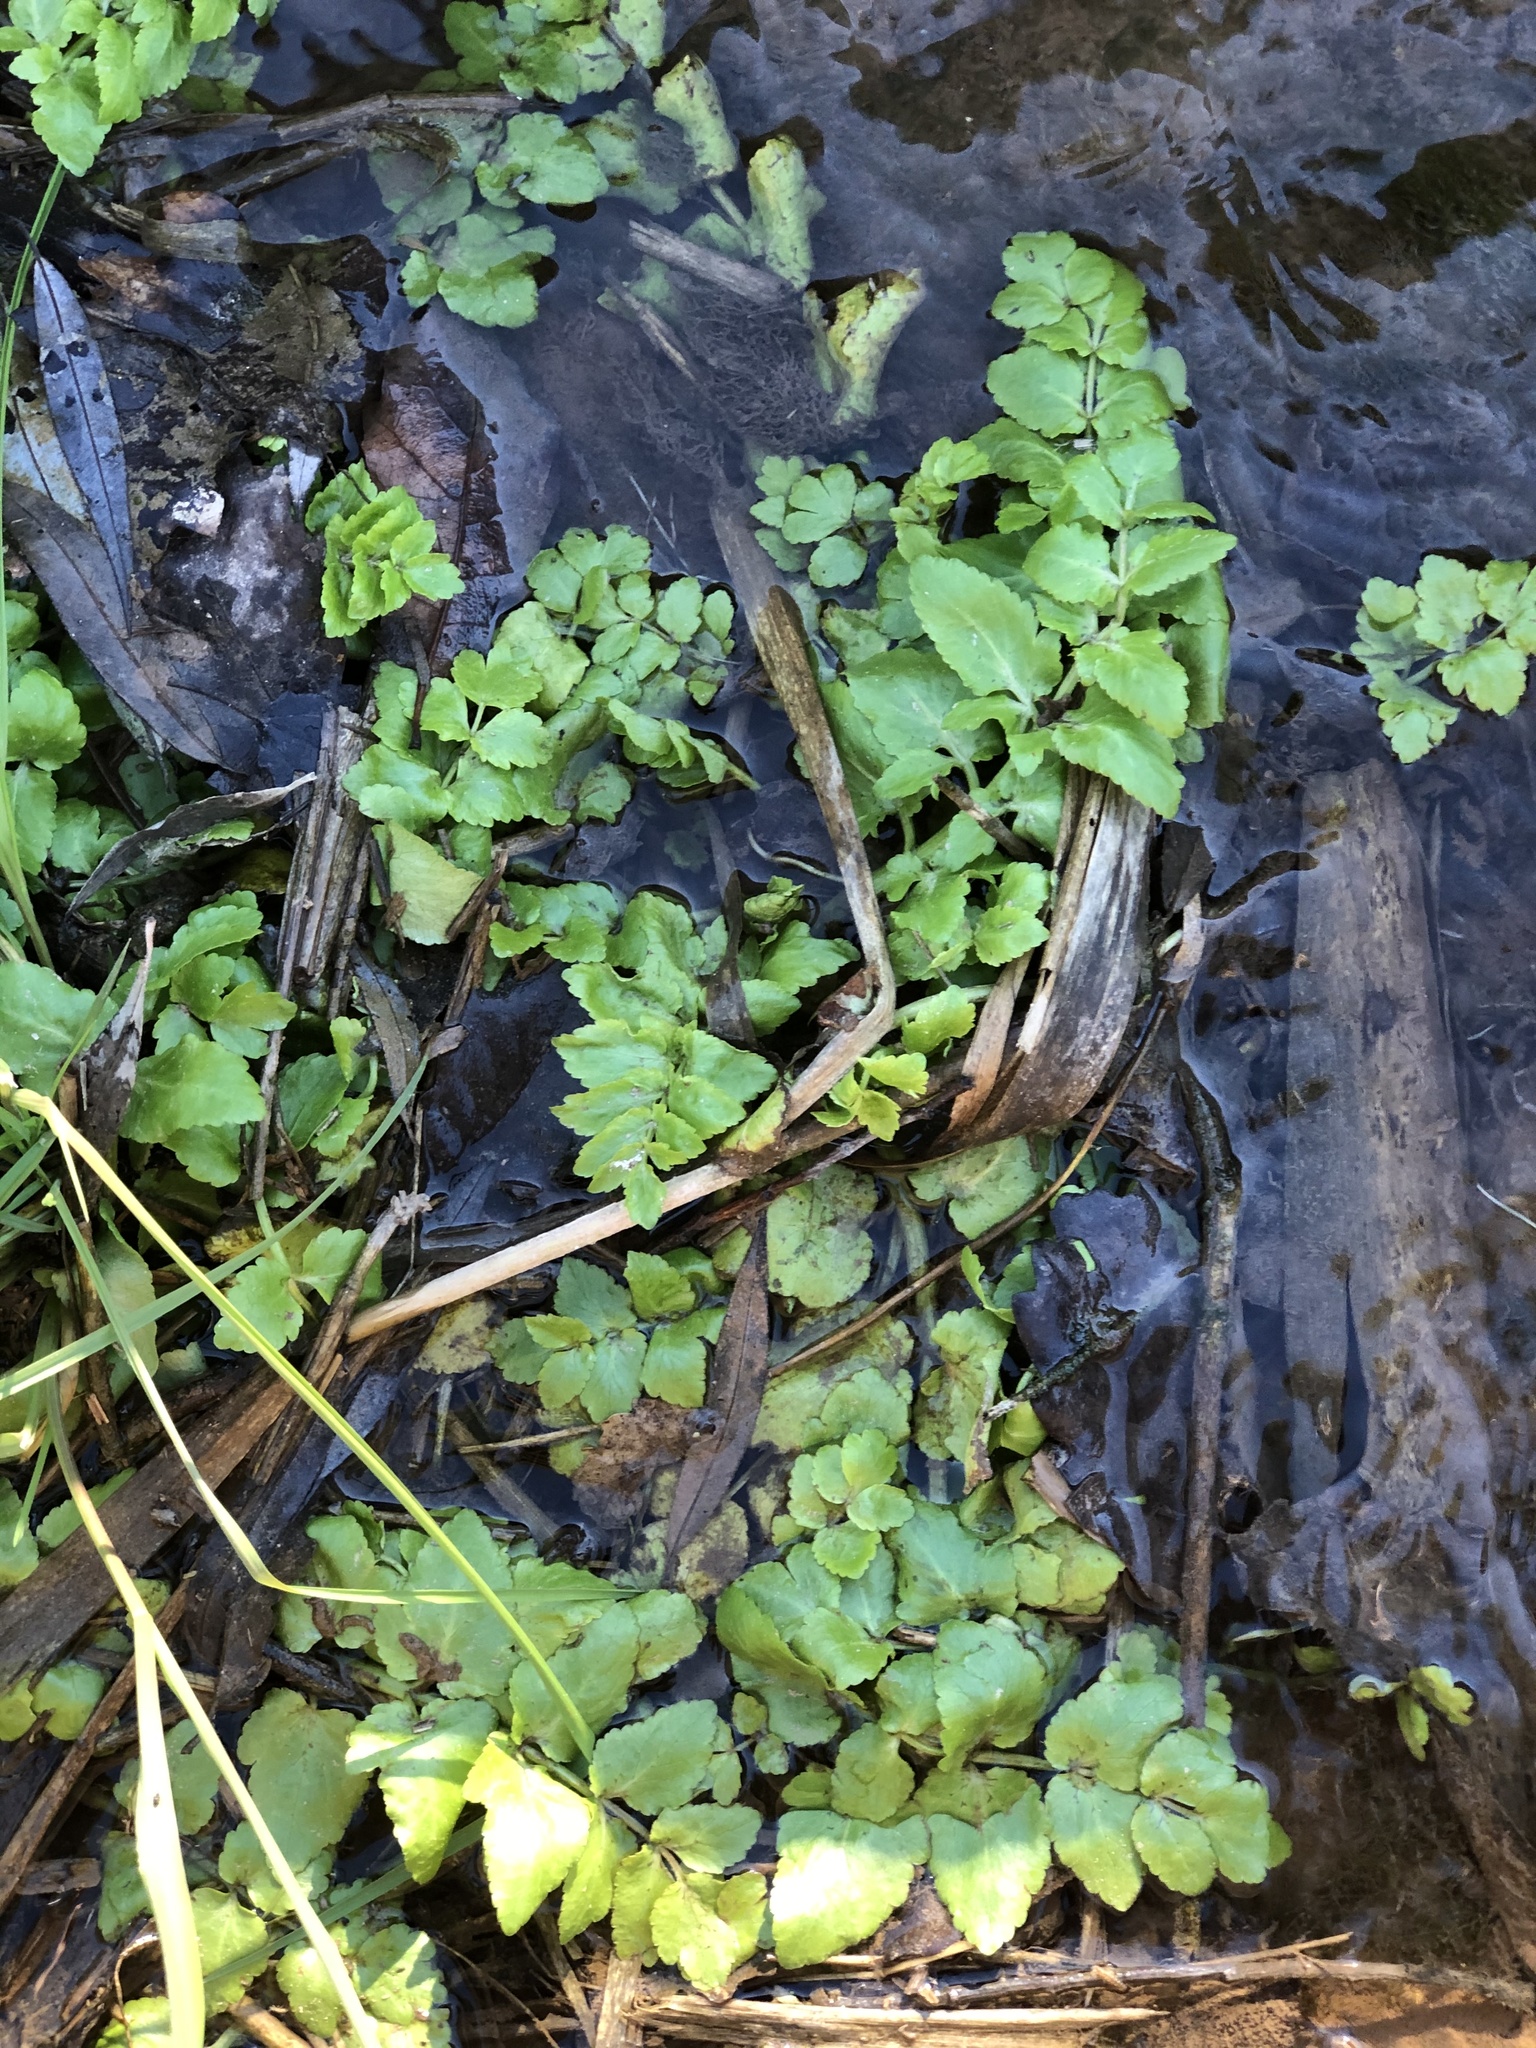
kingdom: Plantae
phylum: Tracheophyta
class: Magnoliopsida
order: Apiales
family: Apiaceae
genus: Helosciadium
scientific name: Helosciadium nodiflorum
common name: Fool's-watercress
